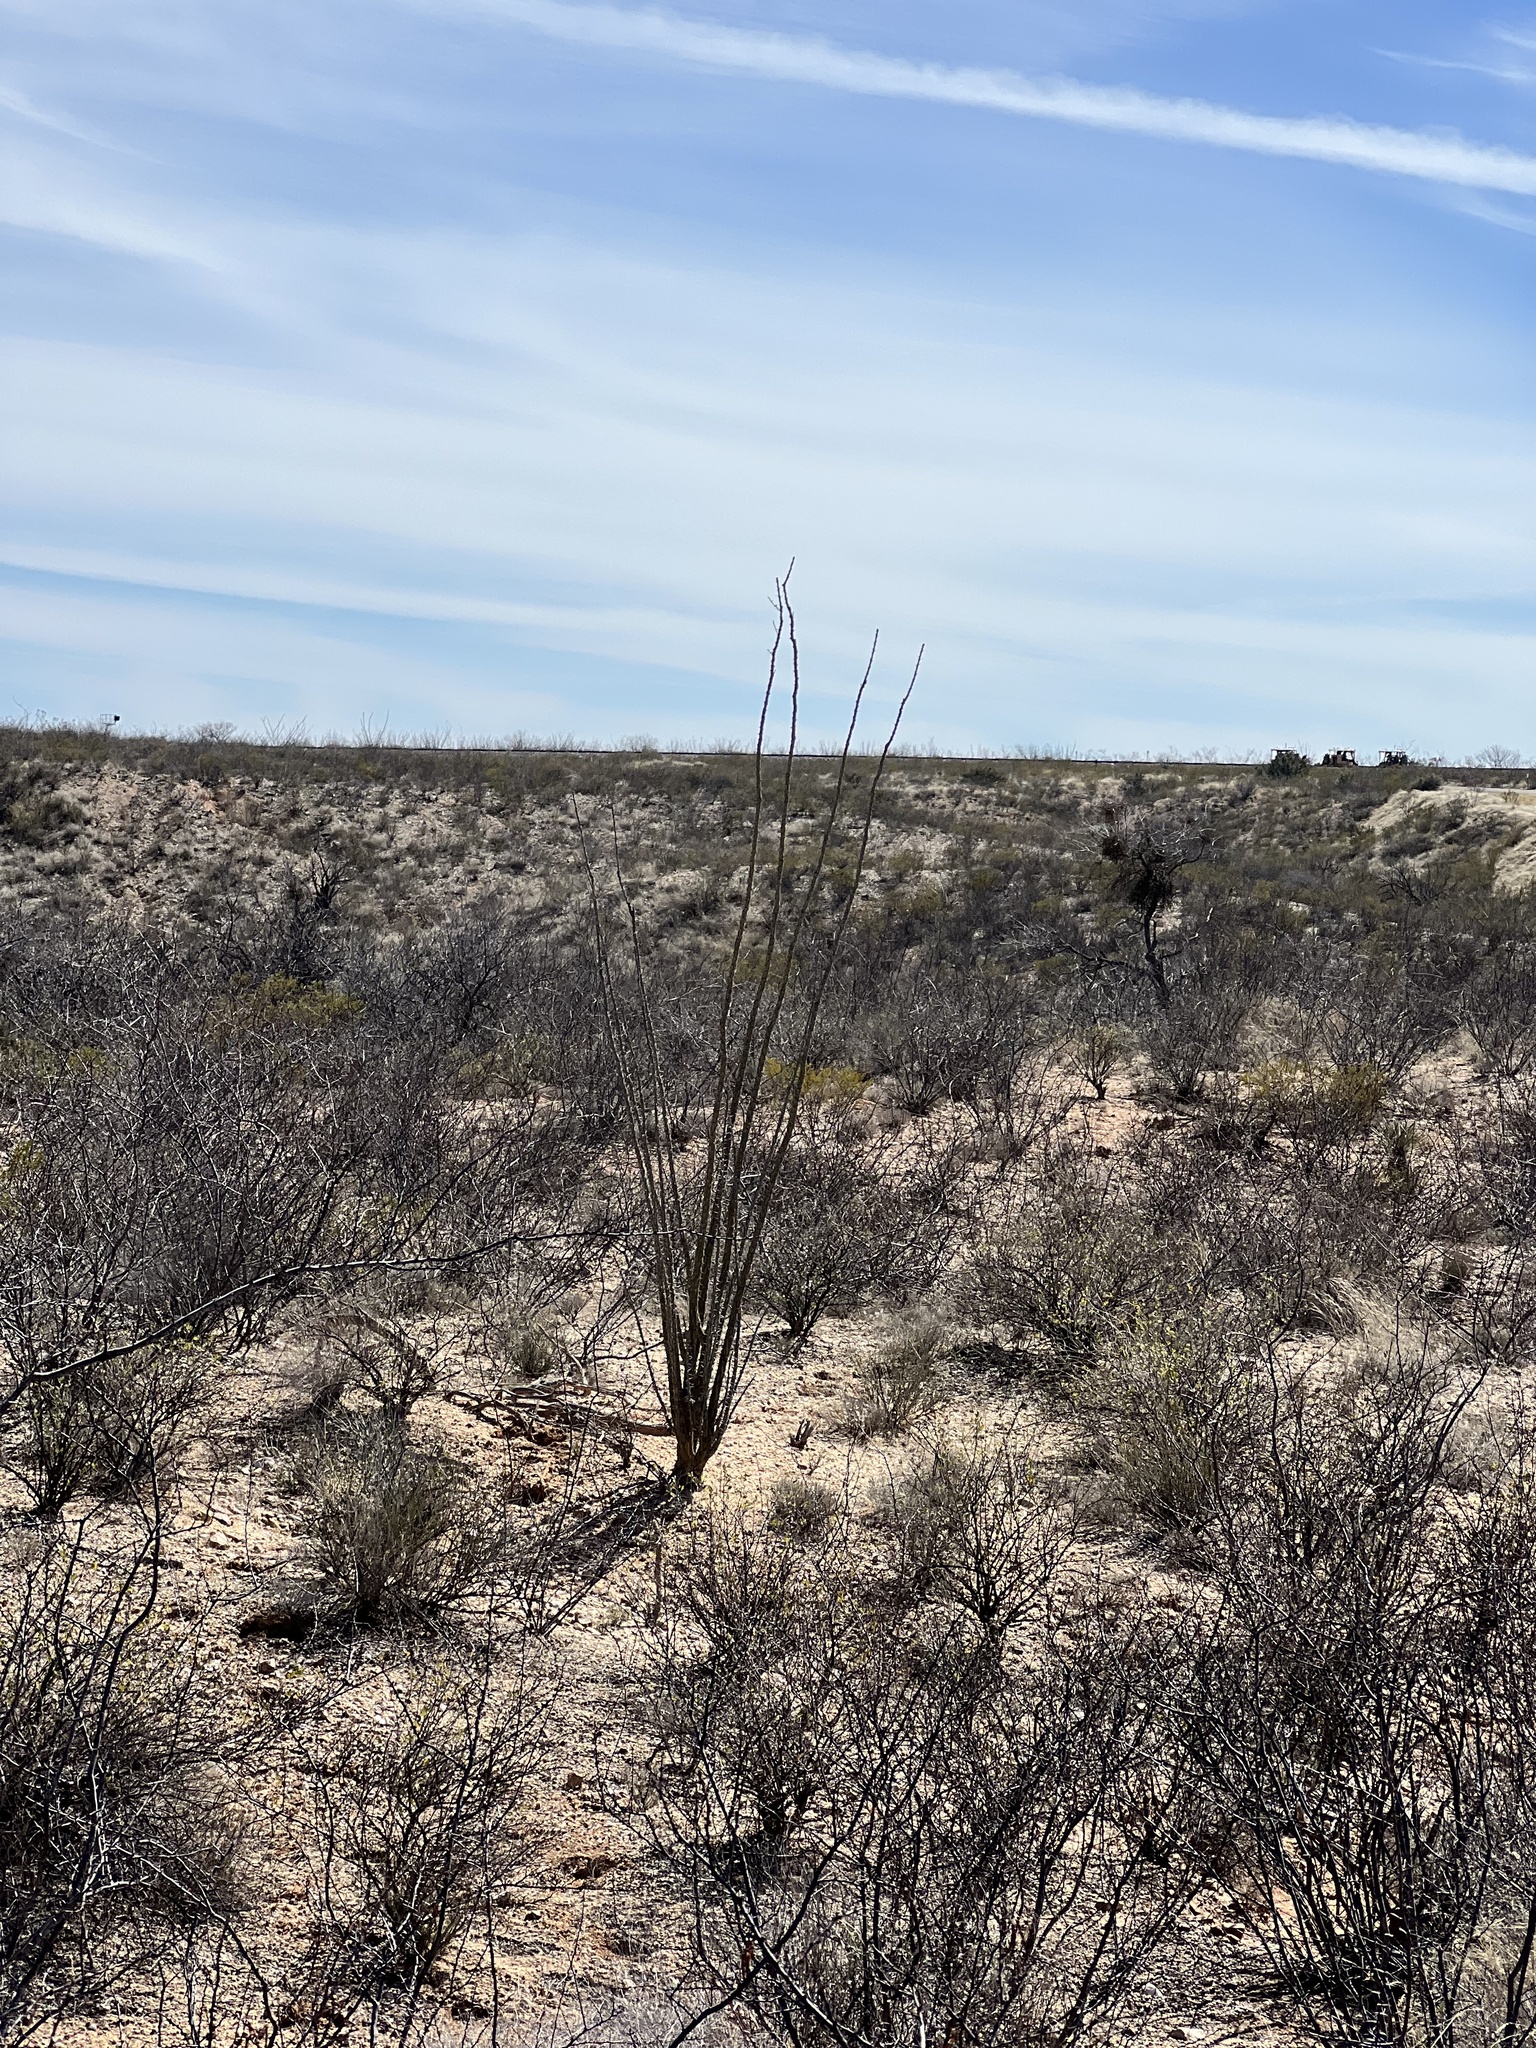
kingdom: Plantae
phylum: Tracheophyta
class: Magnoliopsida
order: Ericales
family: Fouquieriaceae
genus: Fouquieria
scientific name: Fouquieria splendens
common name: Vine-cactus
